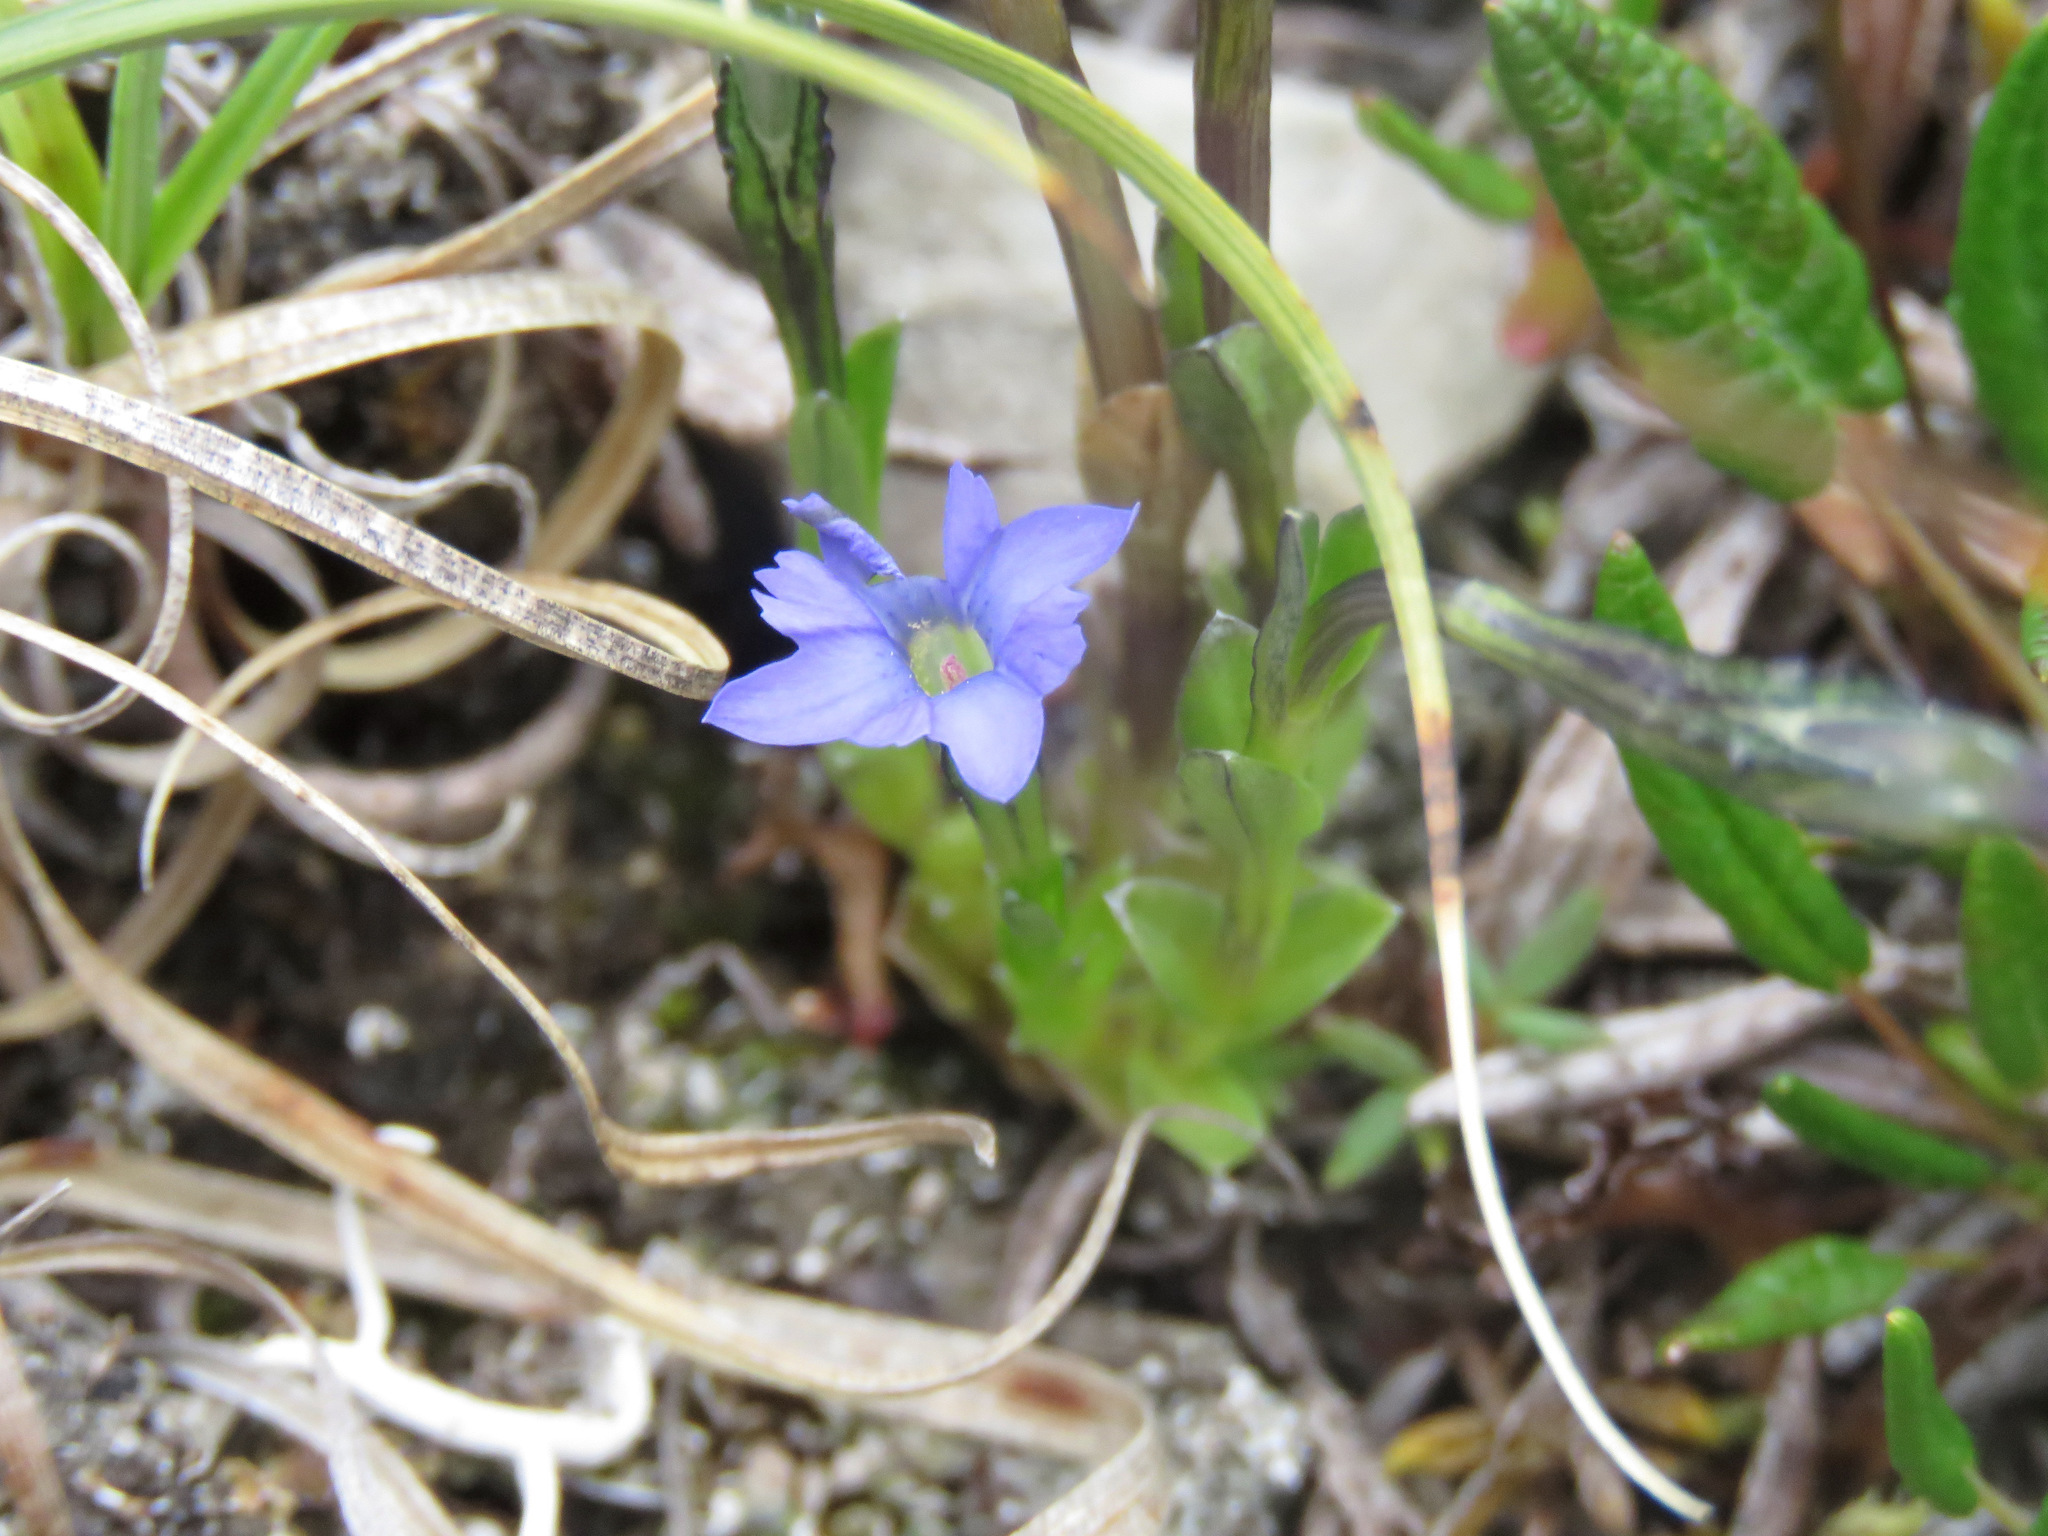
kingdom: Plantae
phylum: Tracheophyta
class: Magnoliopsida
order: Gentianales
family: Gentianaceae
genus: Gentiana
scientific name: Gentiana prostrata
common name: Moss gentian
